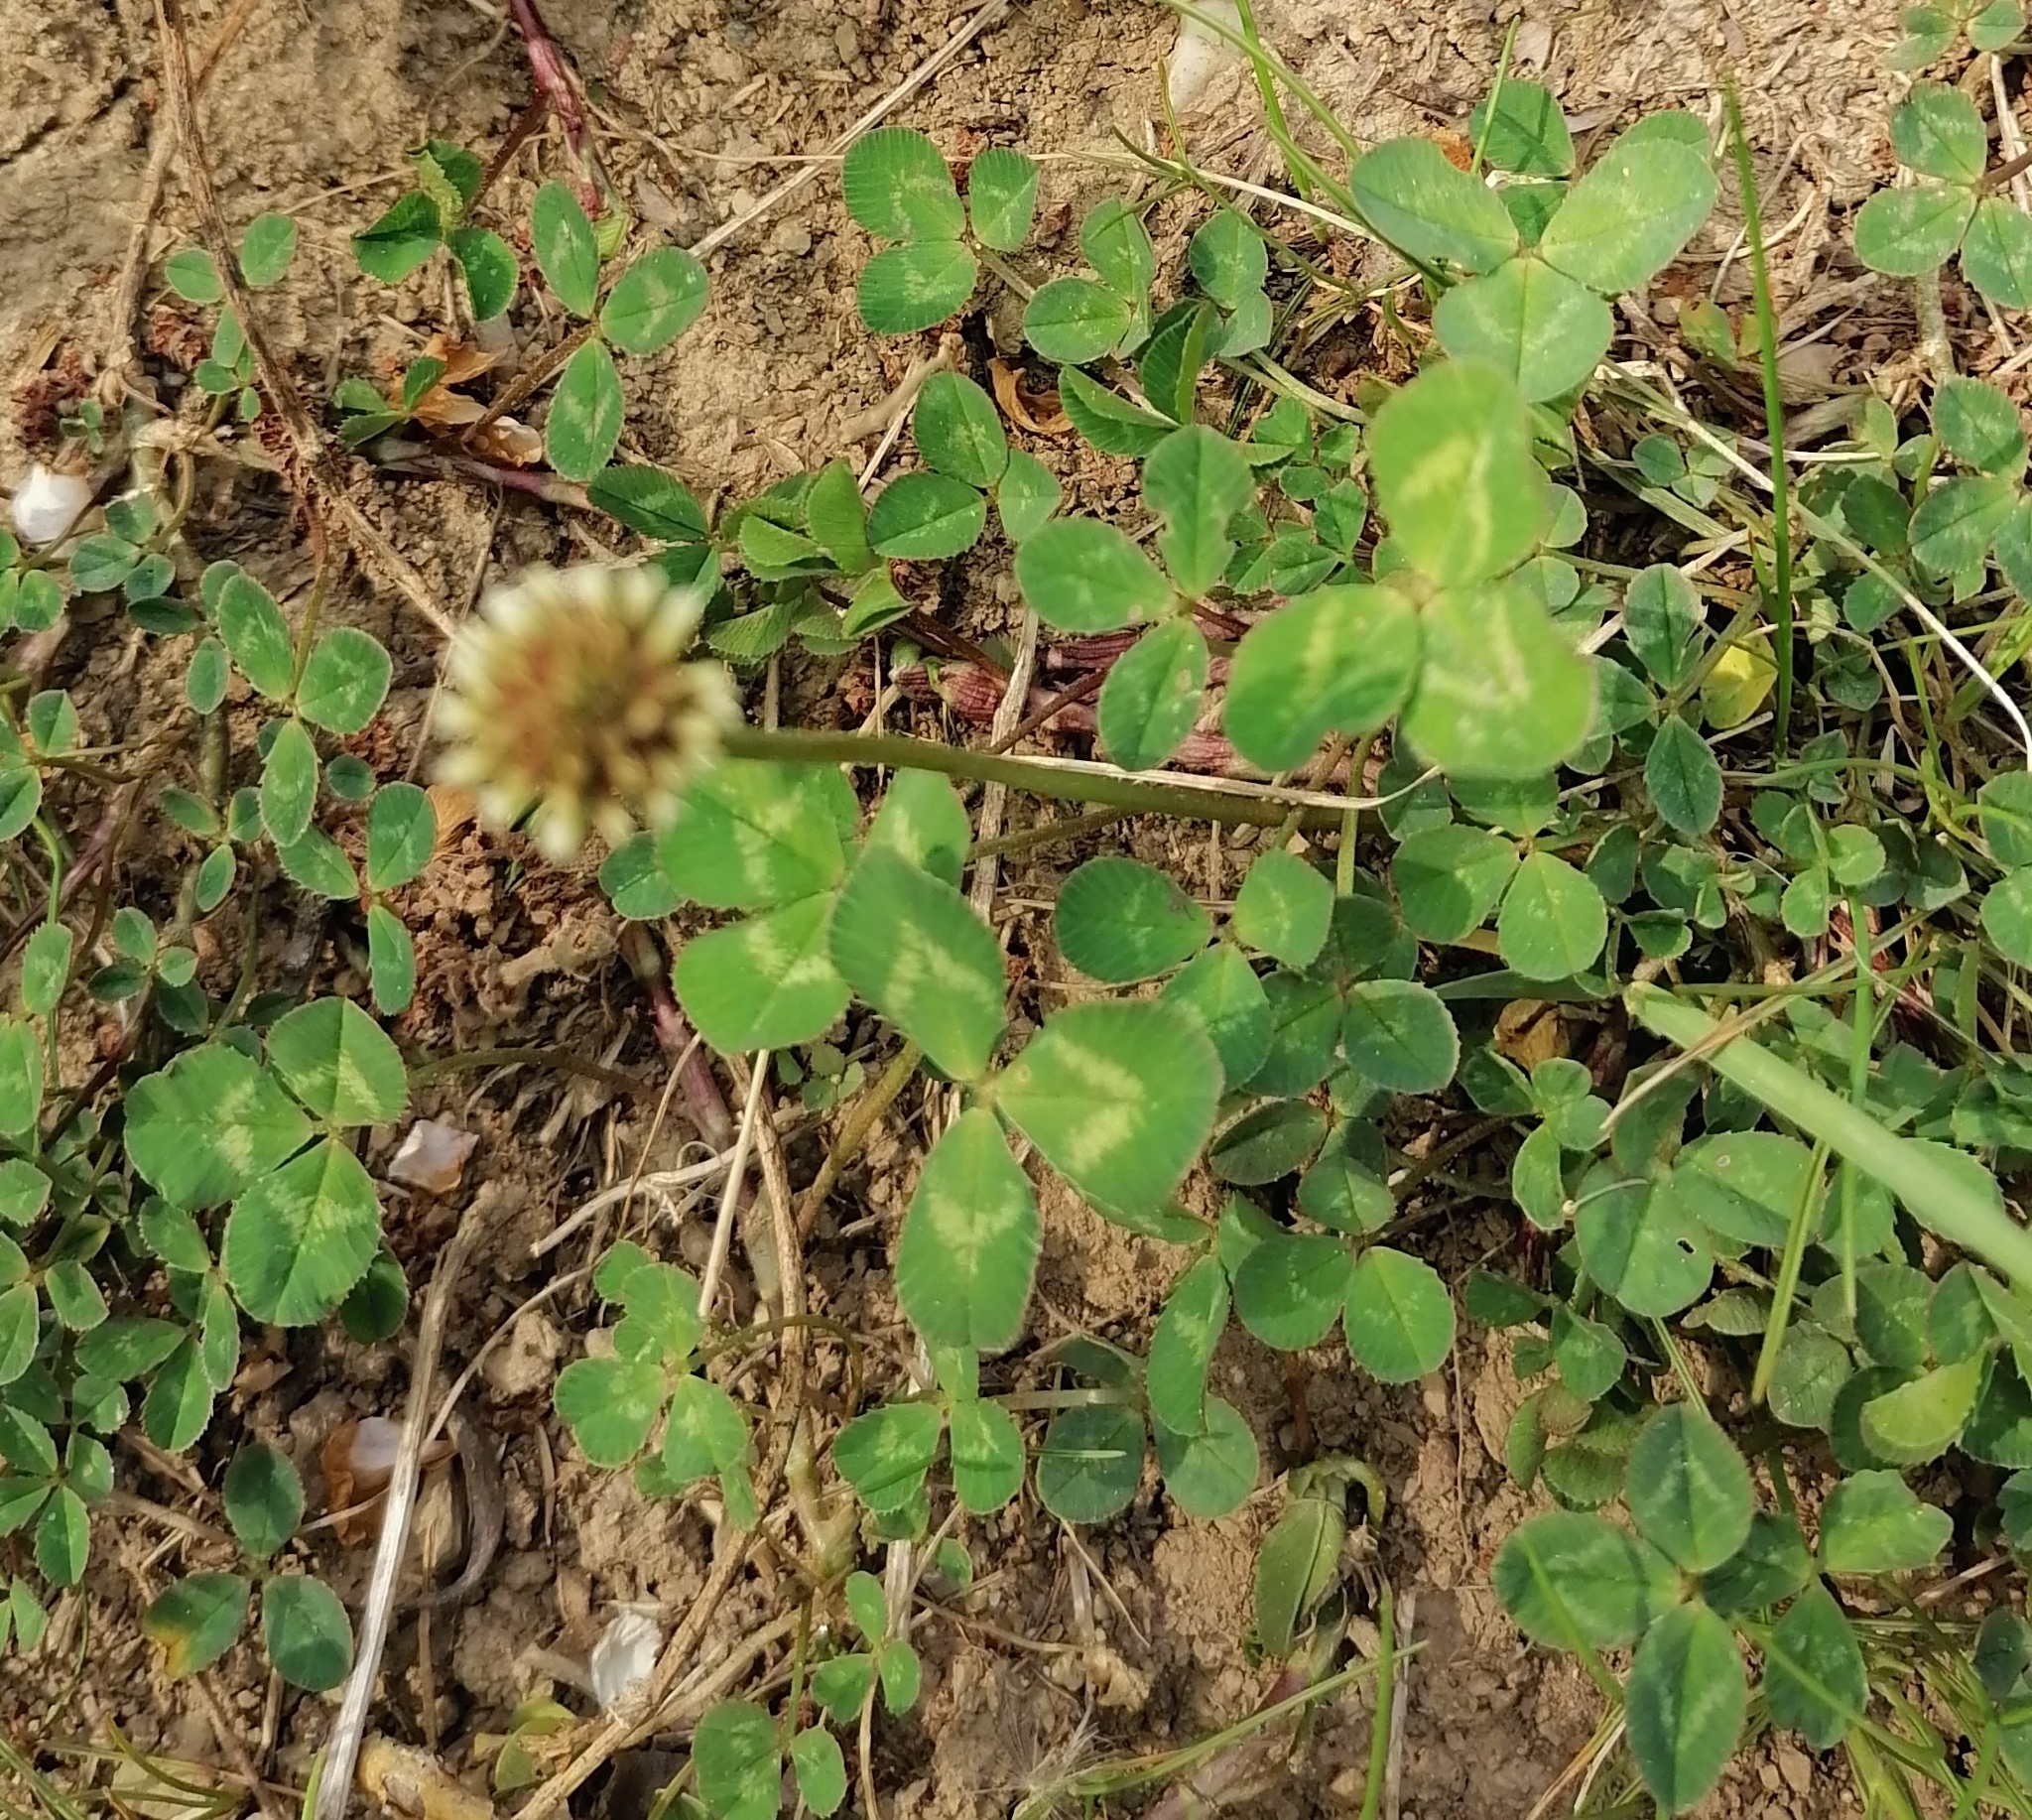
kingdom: Plantae
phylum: Tracheophyta
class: Magnoliopsida
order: Fabales
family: Fabaceae
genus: Trifolium
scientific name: Trifolium repens
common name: White clover
